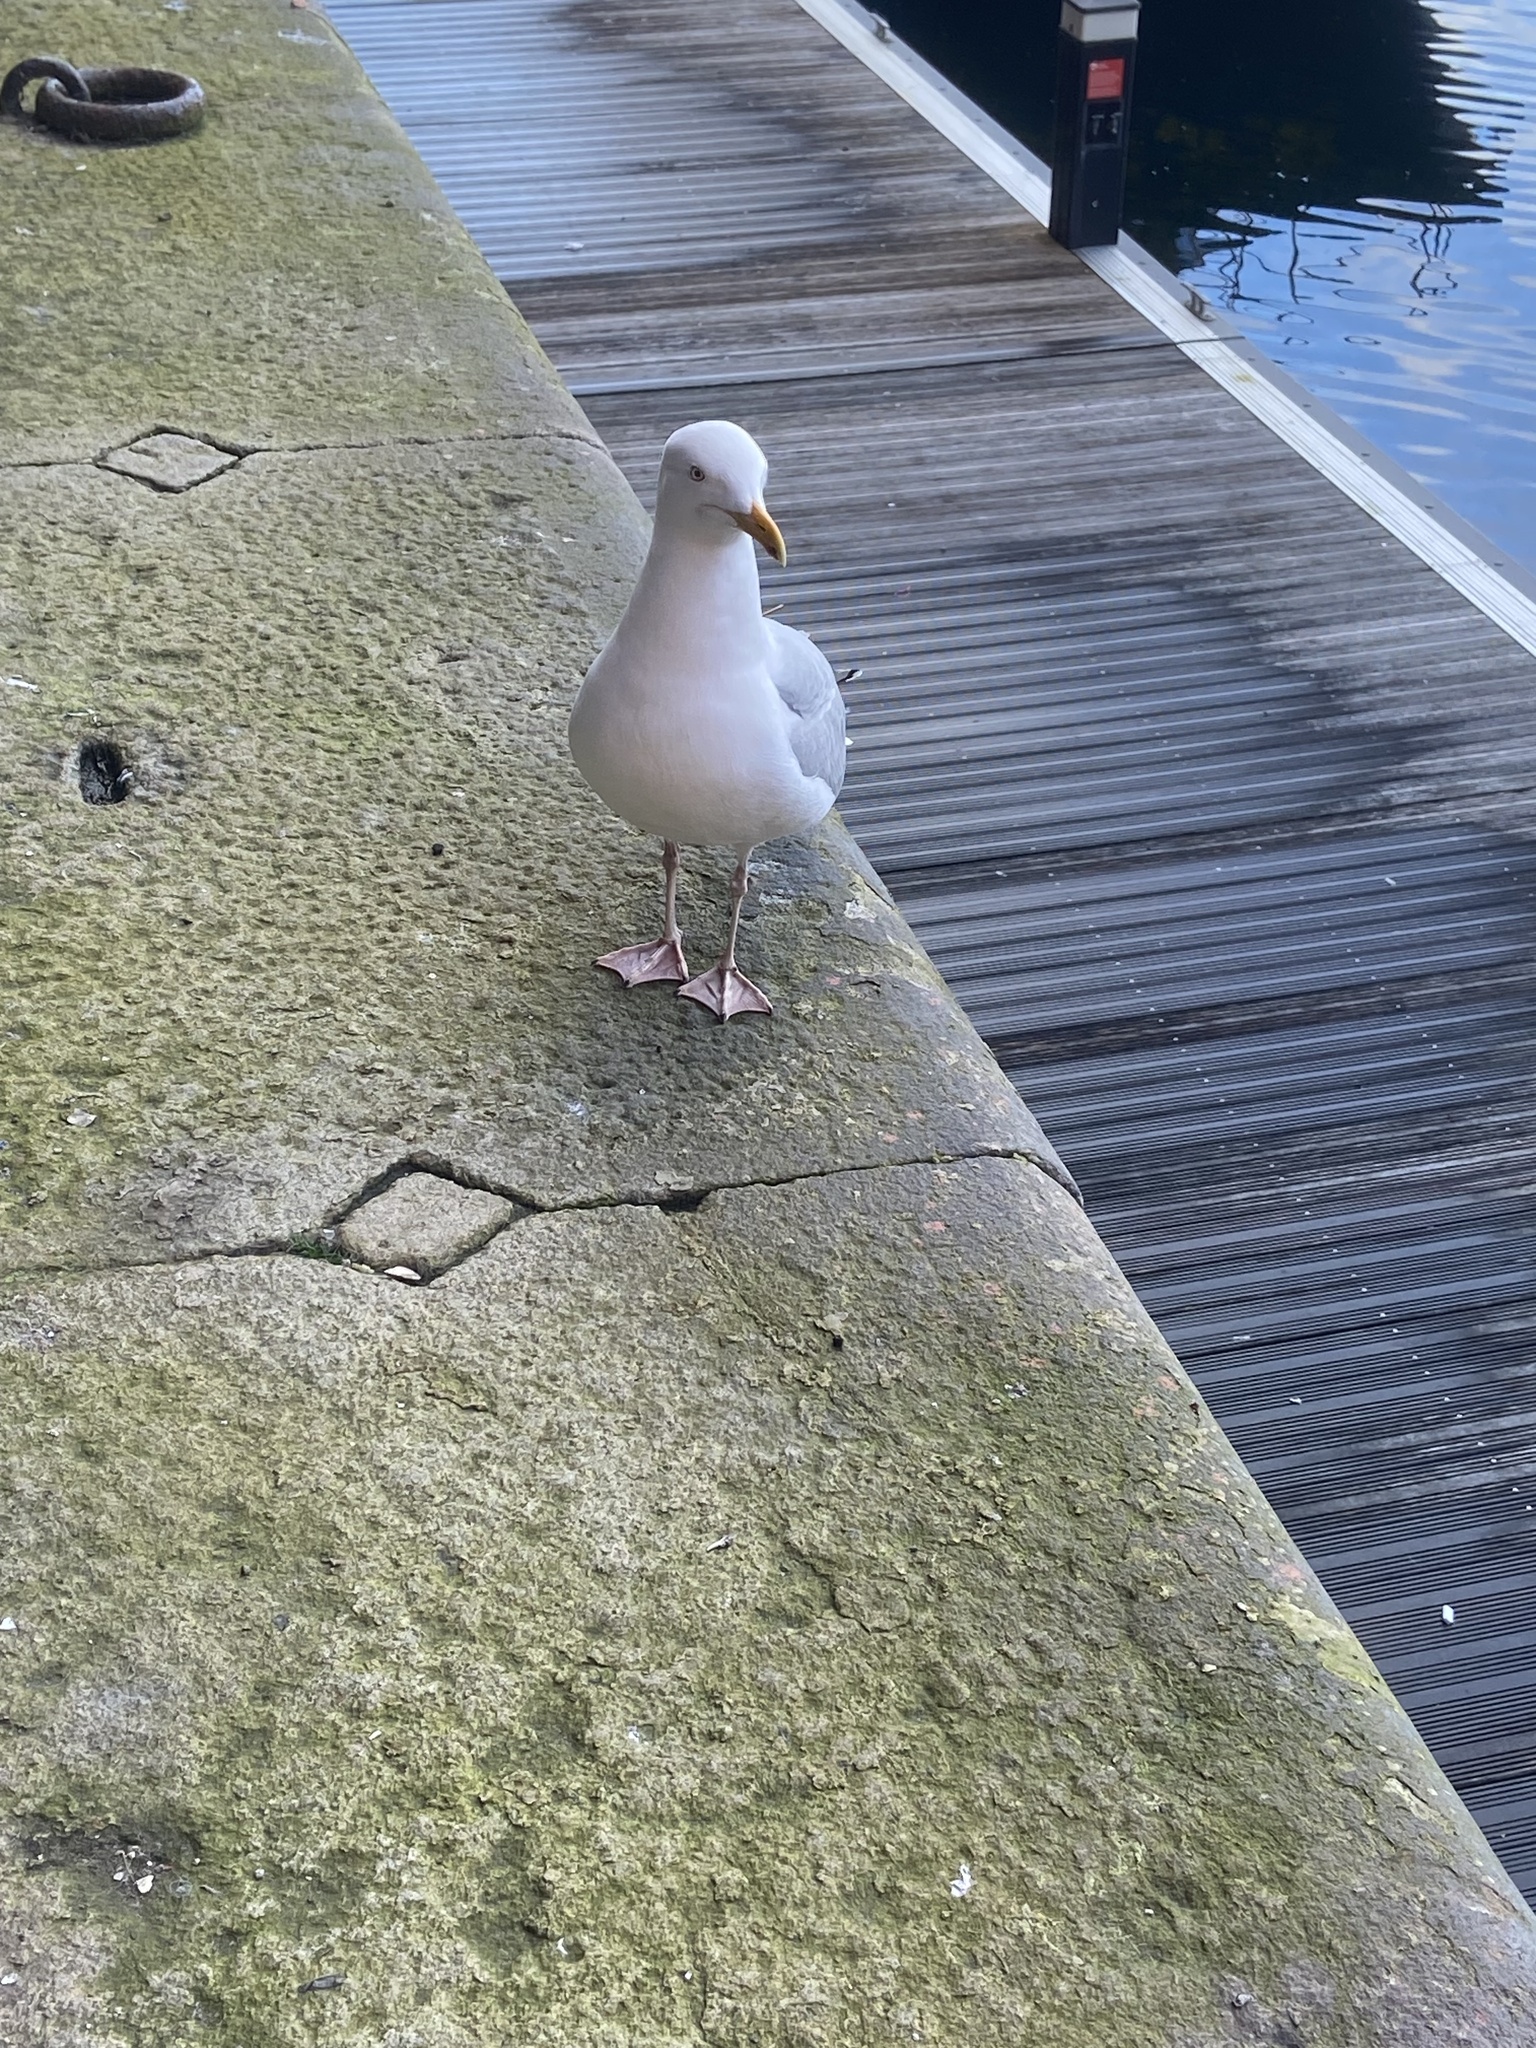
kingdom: Animalia
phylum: Chordata
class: Aves
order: Charadriiformes
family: Laridae
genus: Larus
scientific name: Larus argentatus
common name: Herring gull
